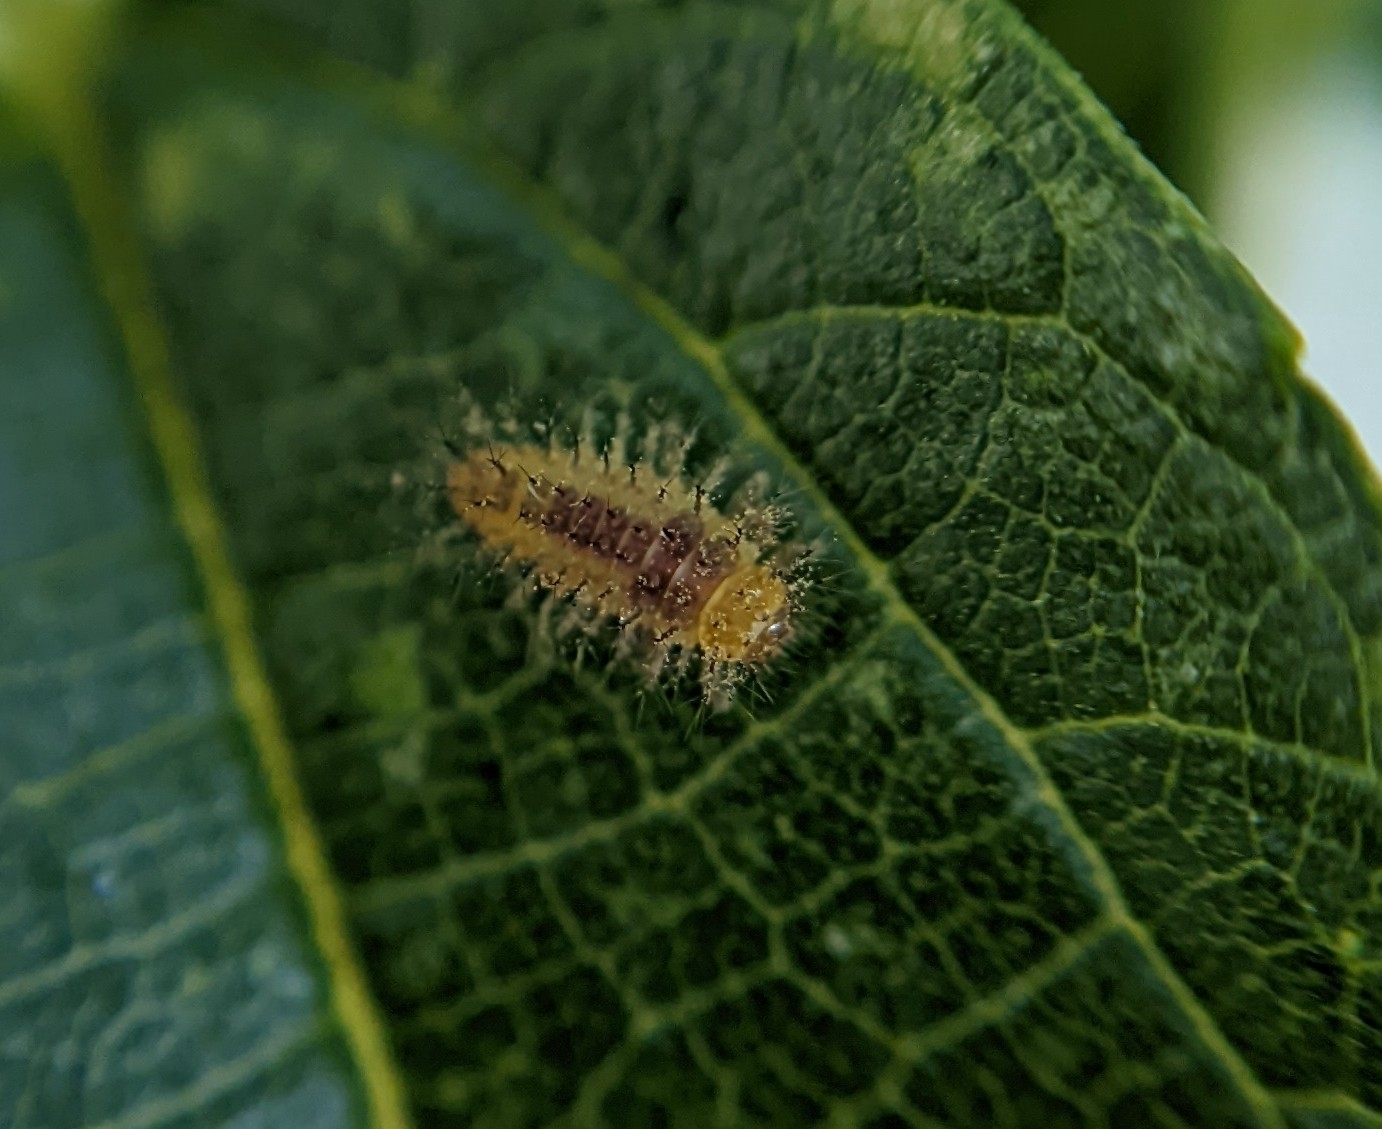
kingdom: Animalia
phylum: Arthropoda
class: Insecta
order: Coleoptera
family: Coccinellidae
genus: Halmus
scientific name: Halmus chalybeus
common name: Steel blue ladybird beetle
